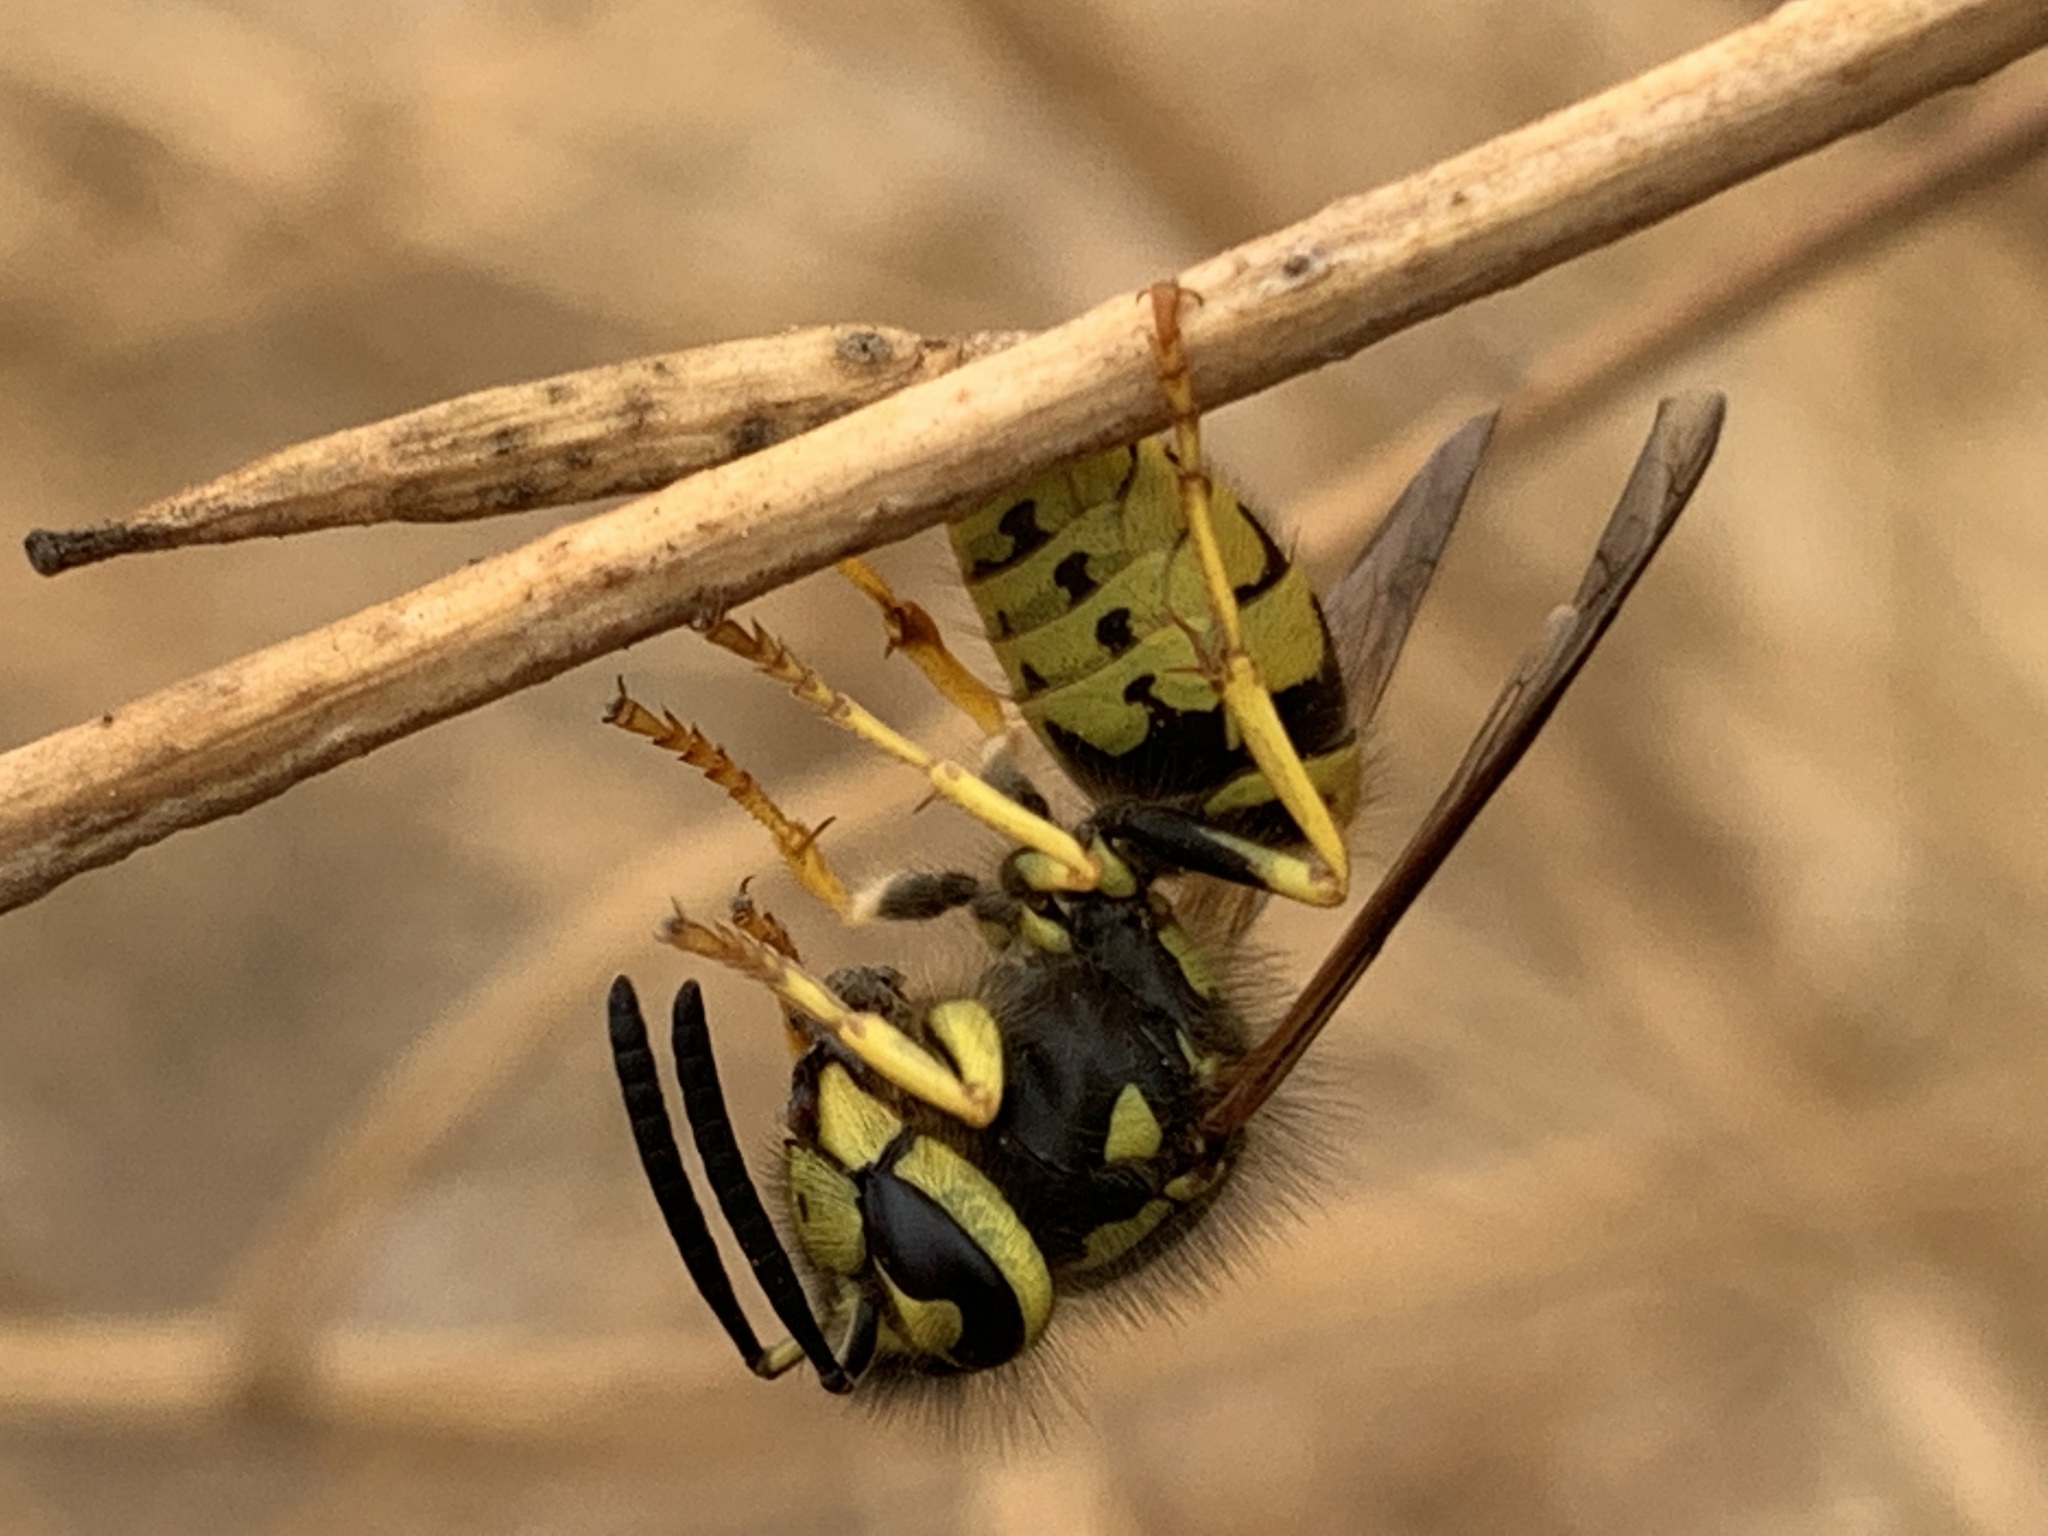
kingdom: Animalia
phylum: Arthropoda
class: Insecta
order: Hymenoptera
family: Vespidae
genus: Vespula
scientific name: Vespula pensylvanica
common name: Western yellowjacket
